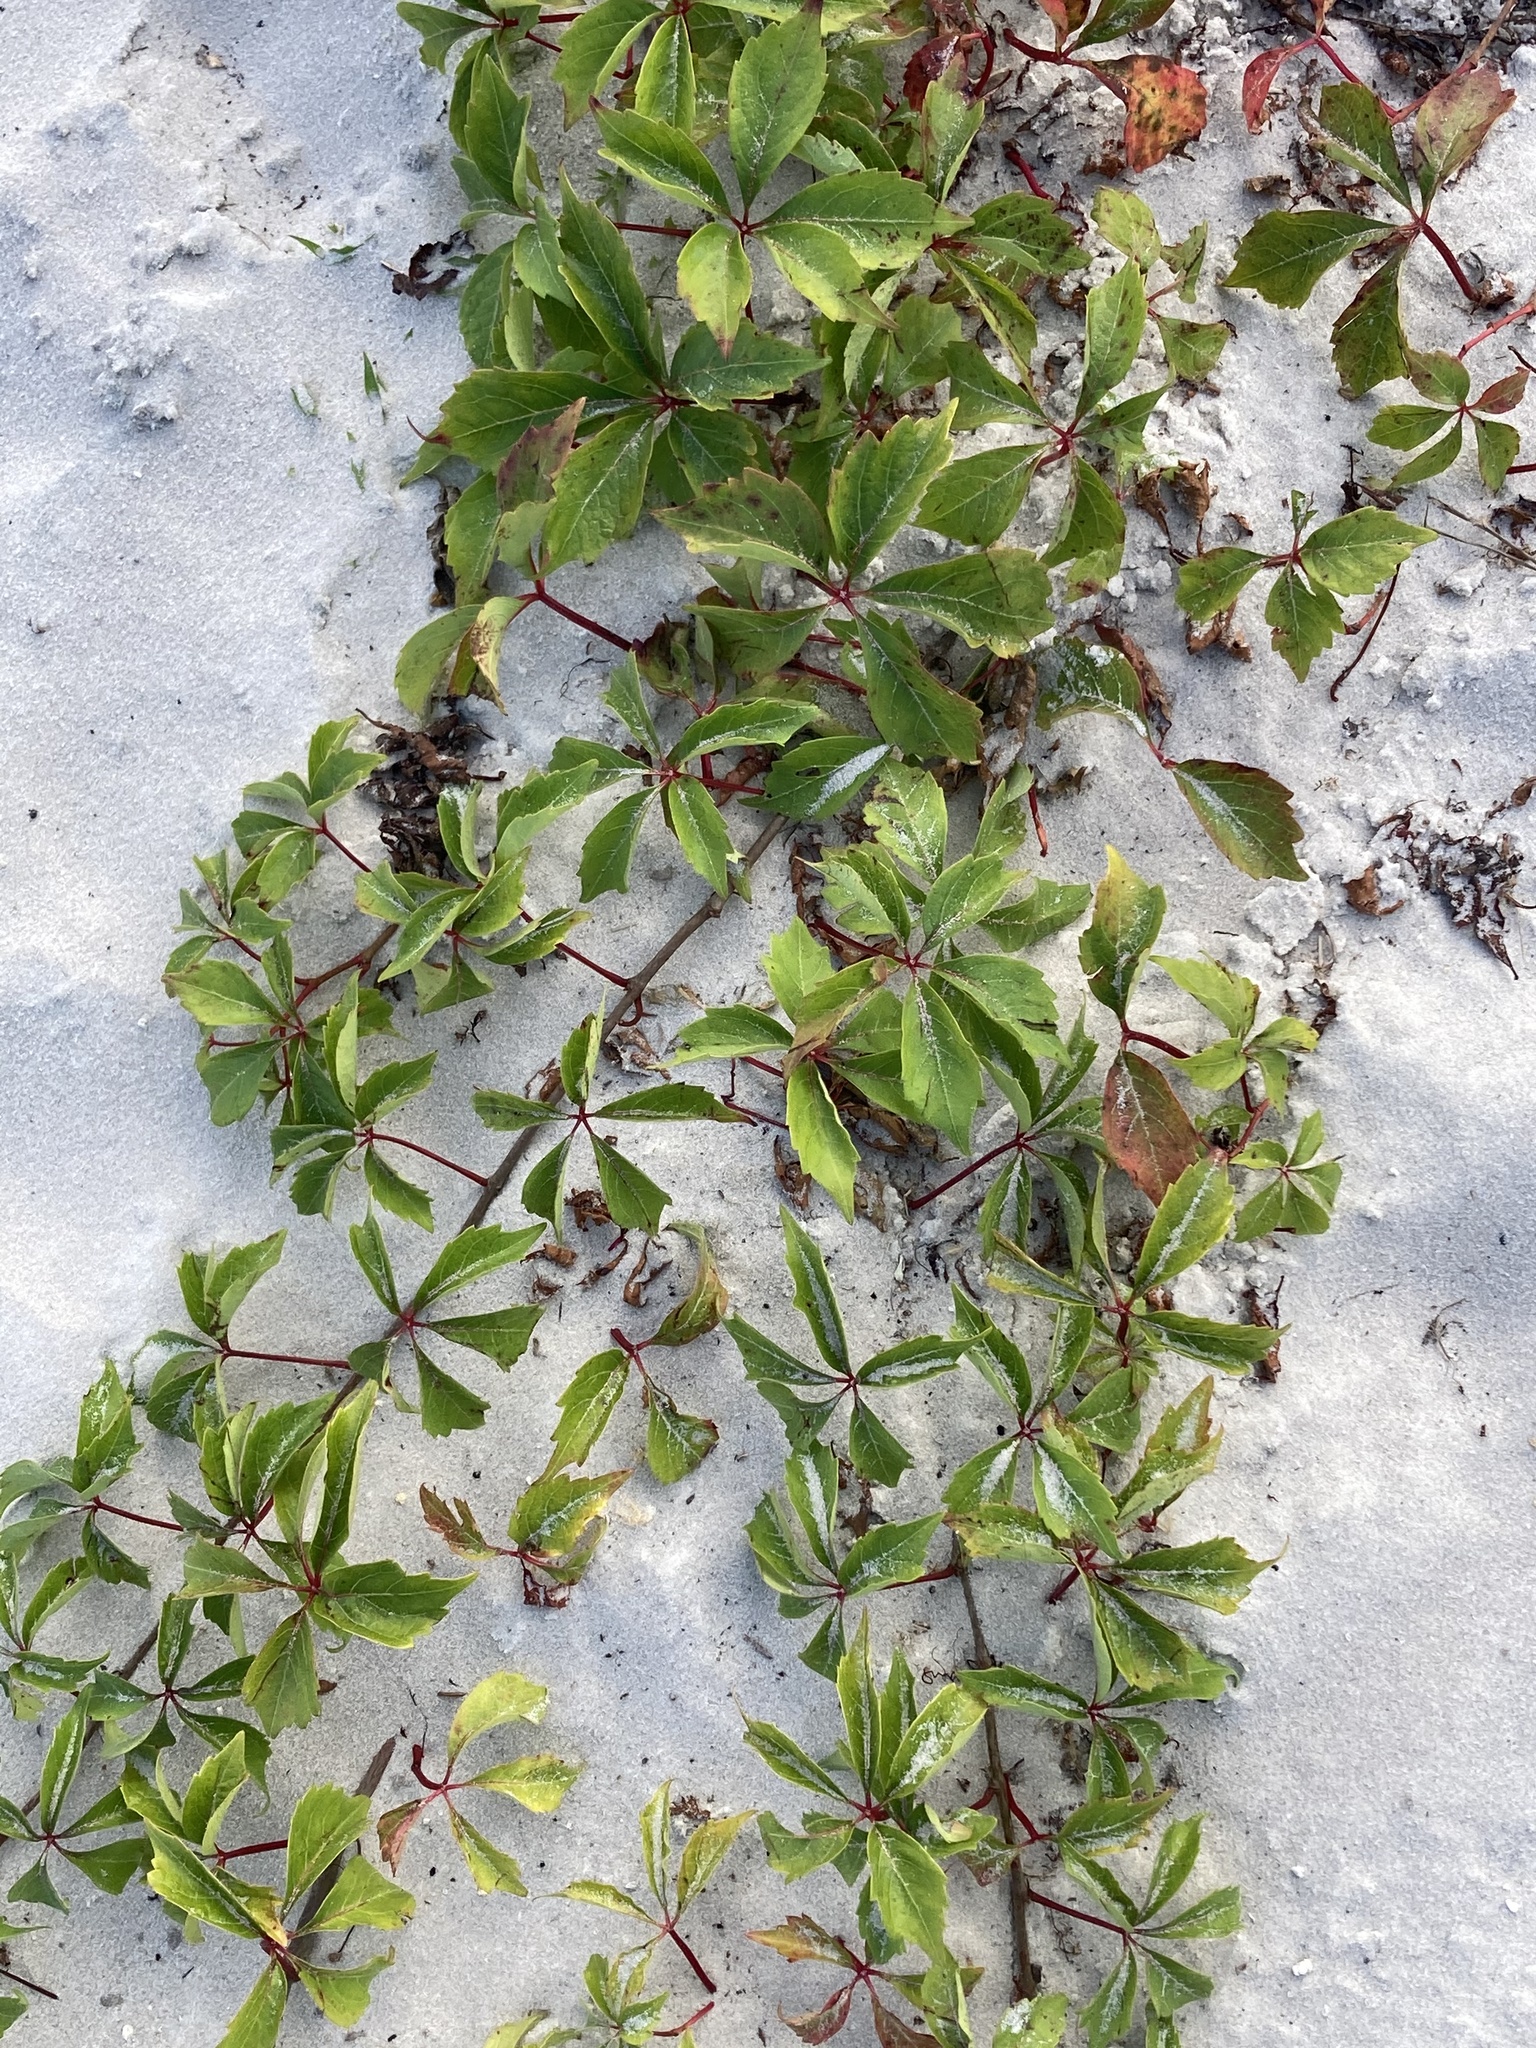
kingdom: Plantae
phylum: Tracheophyta
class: Magnoliopsida
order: Vitales
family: Vitaceae
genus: Parthenocissus
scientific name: Parthenocissus quinquefolia
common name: Virginia-creeper
